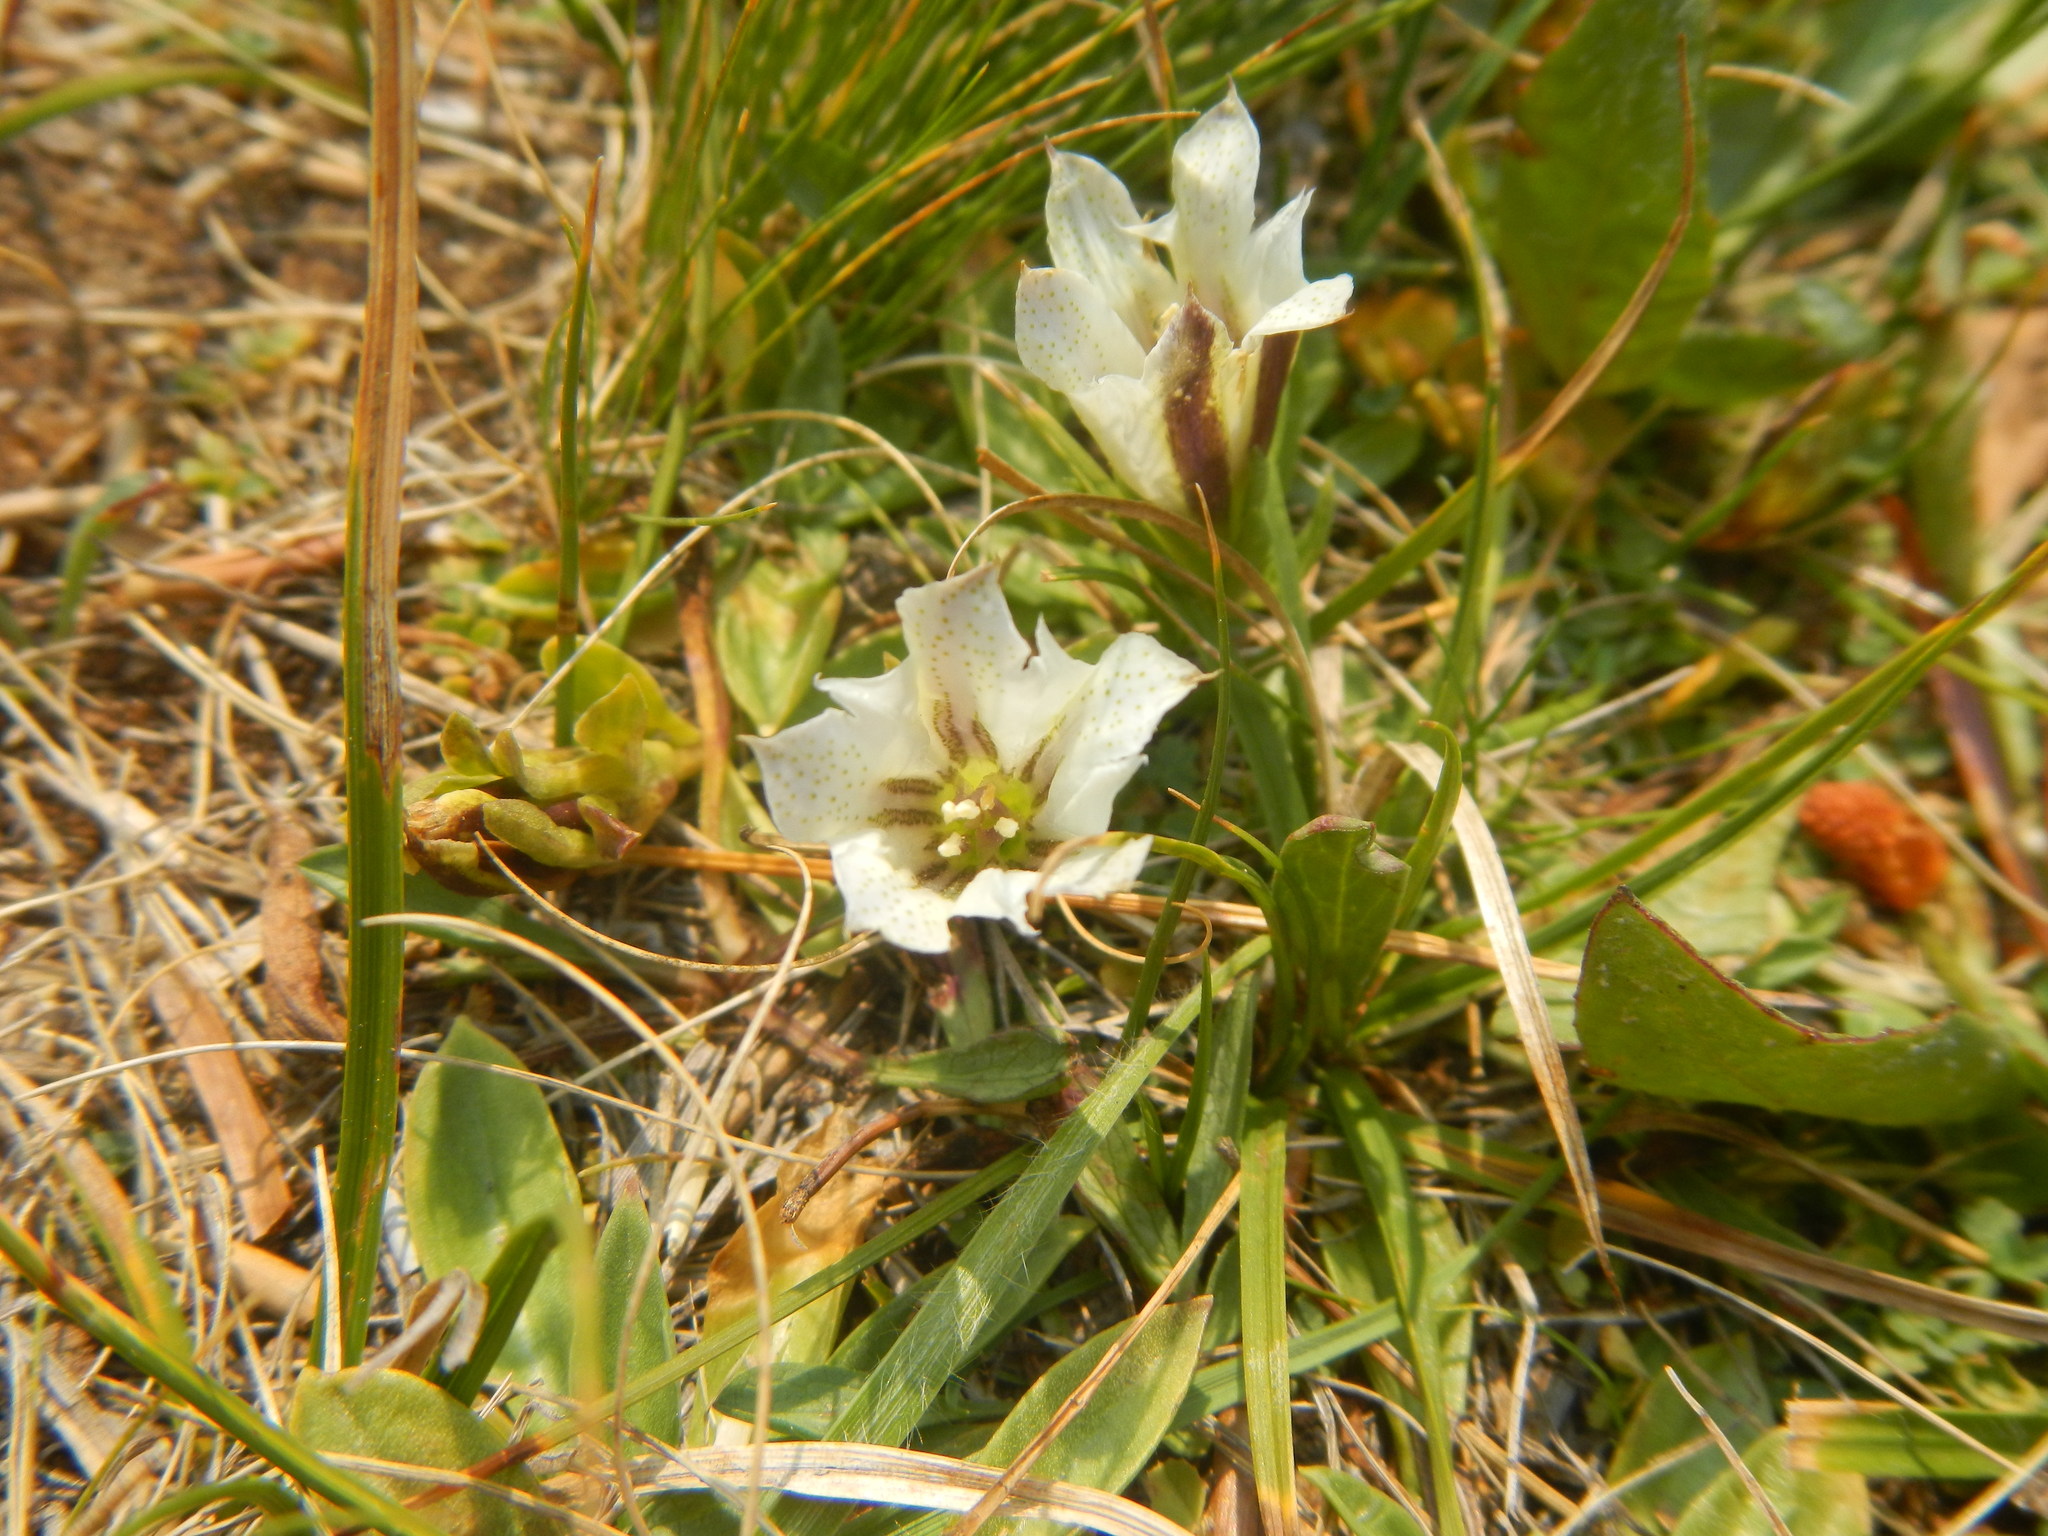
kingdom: Plantae
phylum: Tracheophyta
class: Magnoliopsida
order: Gentianales
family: Gentianaceae
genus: Gentiana
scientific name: Gentiana newberryi
